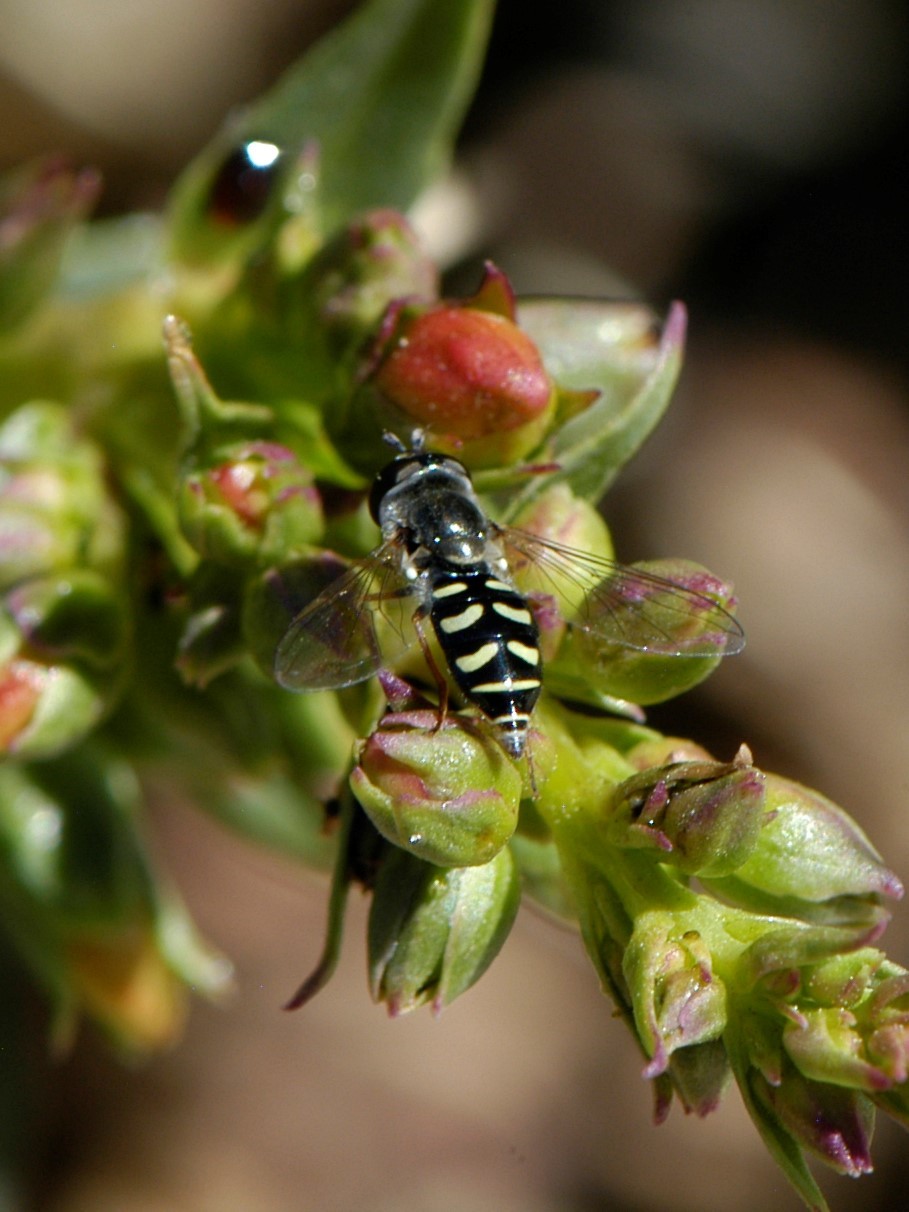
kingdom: Animalia
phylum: Arthropoda
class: Insecta
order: Diptera
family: Syrphidae
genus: Eupeodes
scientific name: Eupeodes volucris
